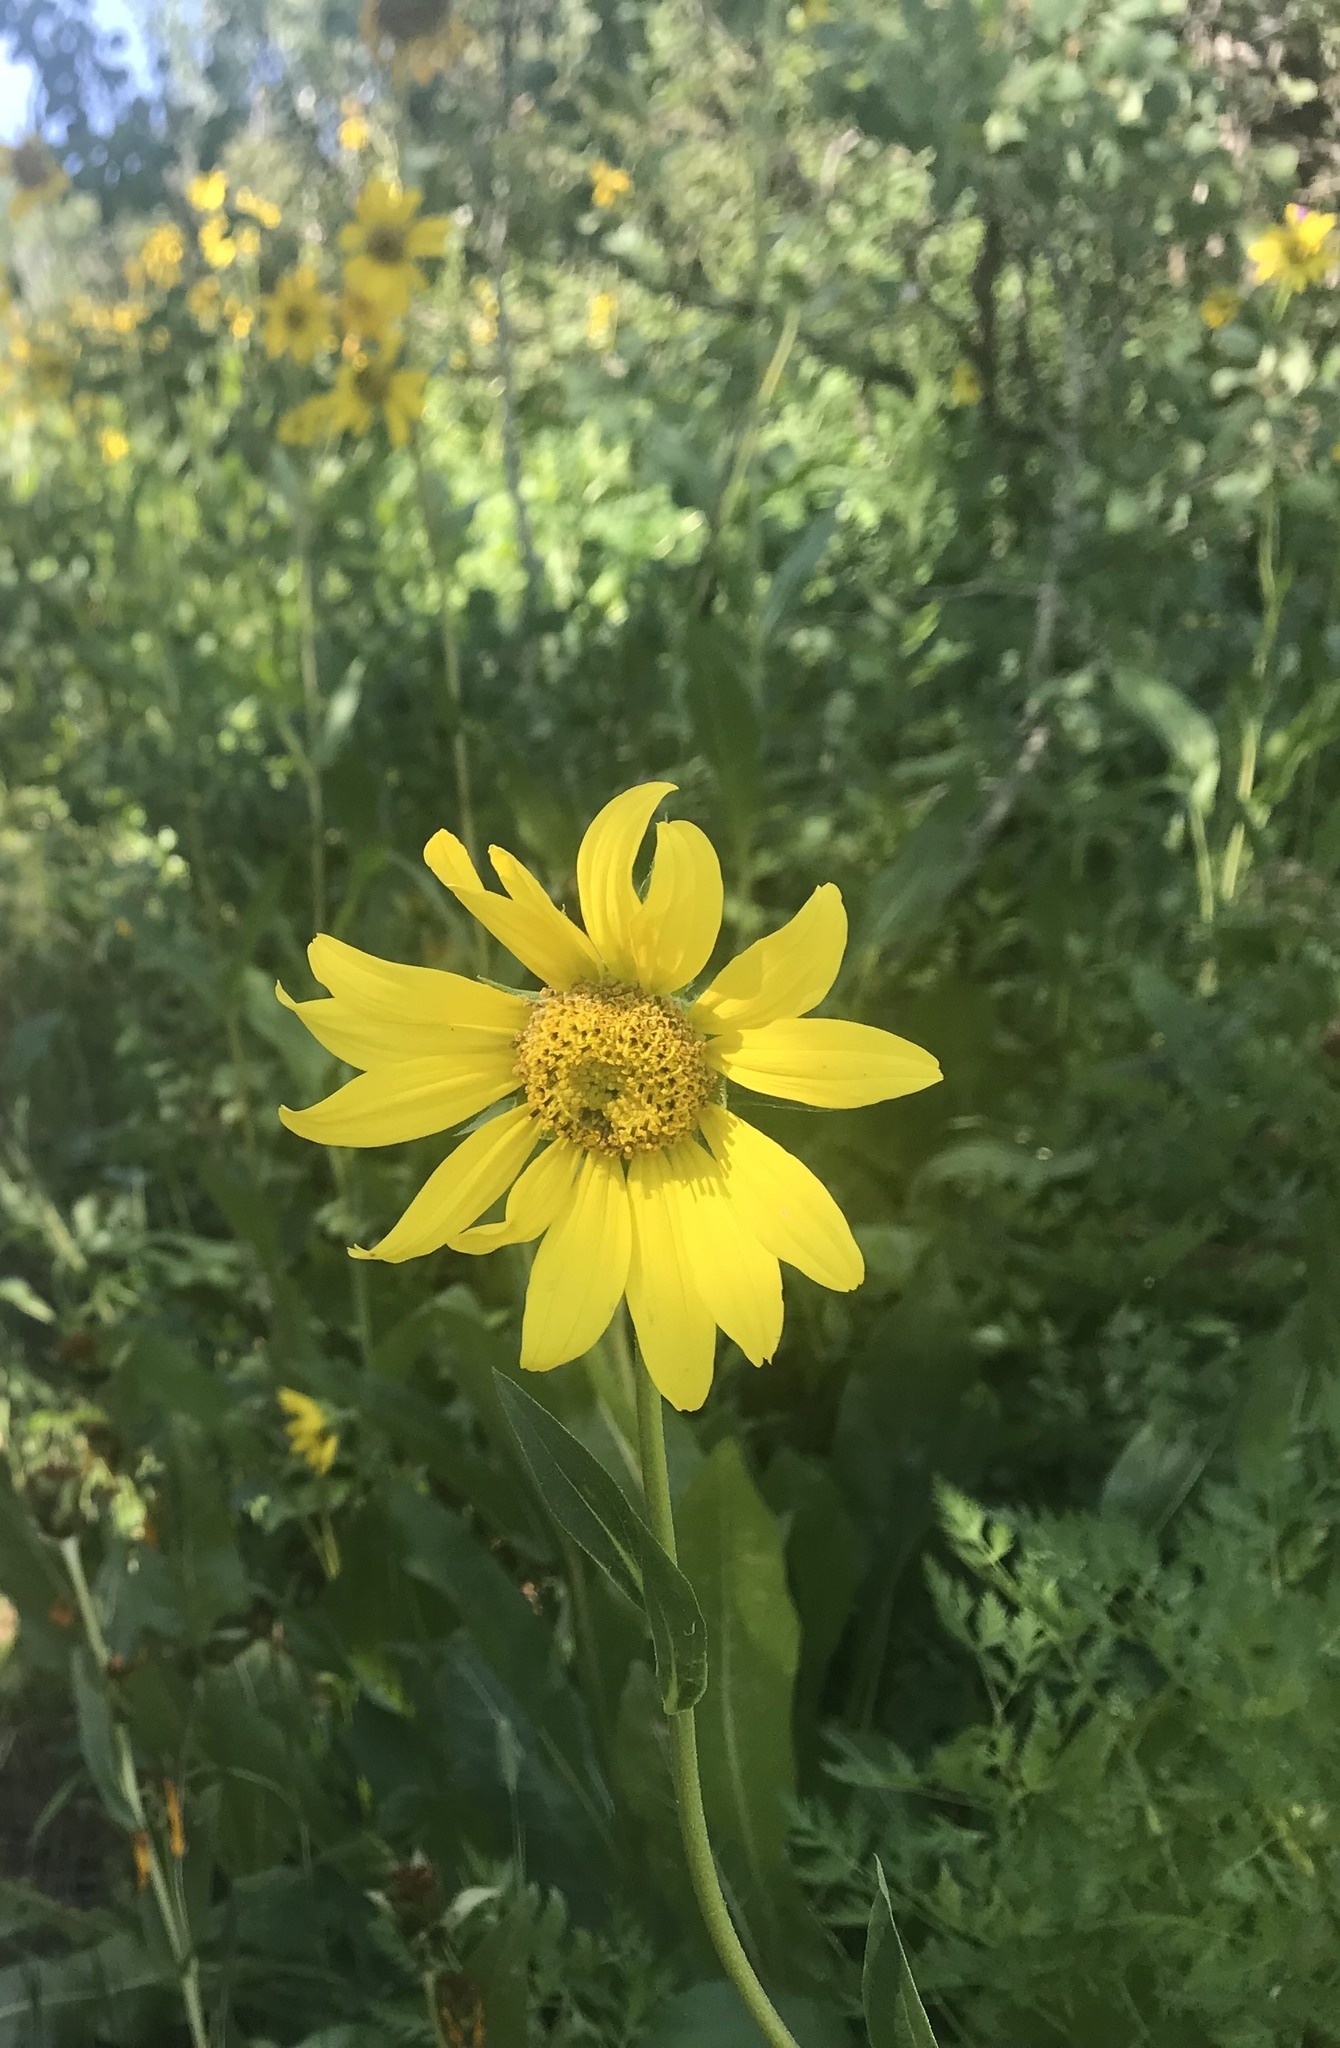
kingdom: Plantae
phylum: Tracheophyta
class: Magnoliopsida
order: Asterales
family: Asteraceae
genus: Wyethia
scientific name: Wyethia amplexicaulis
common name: Northern mule's-ears
